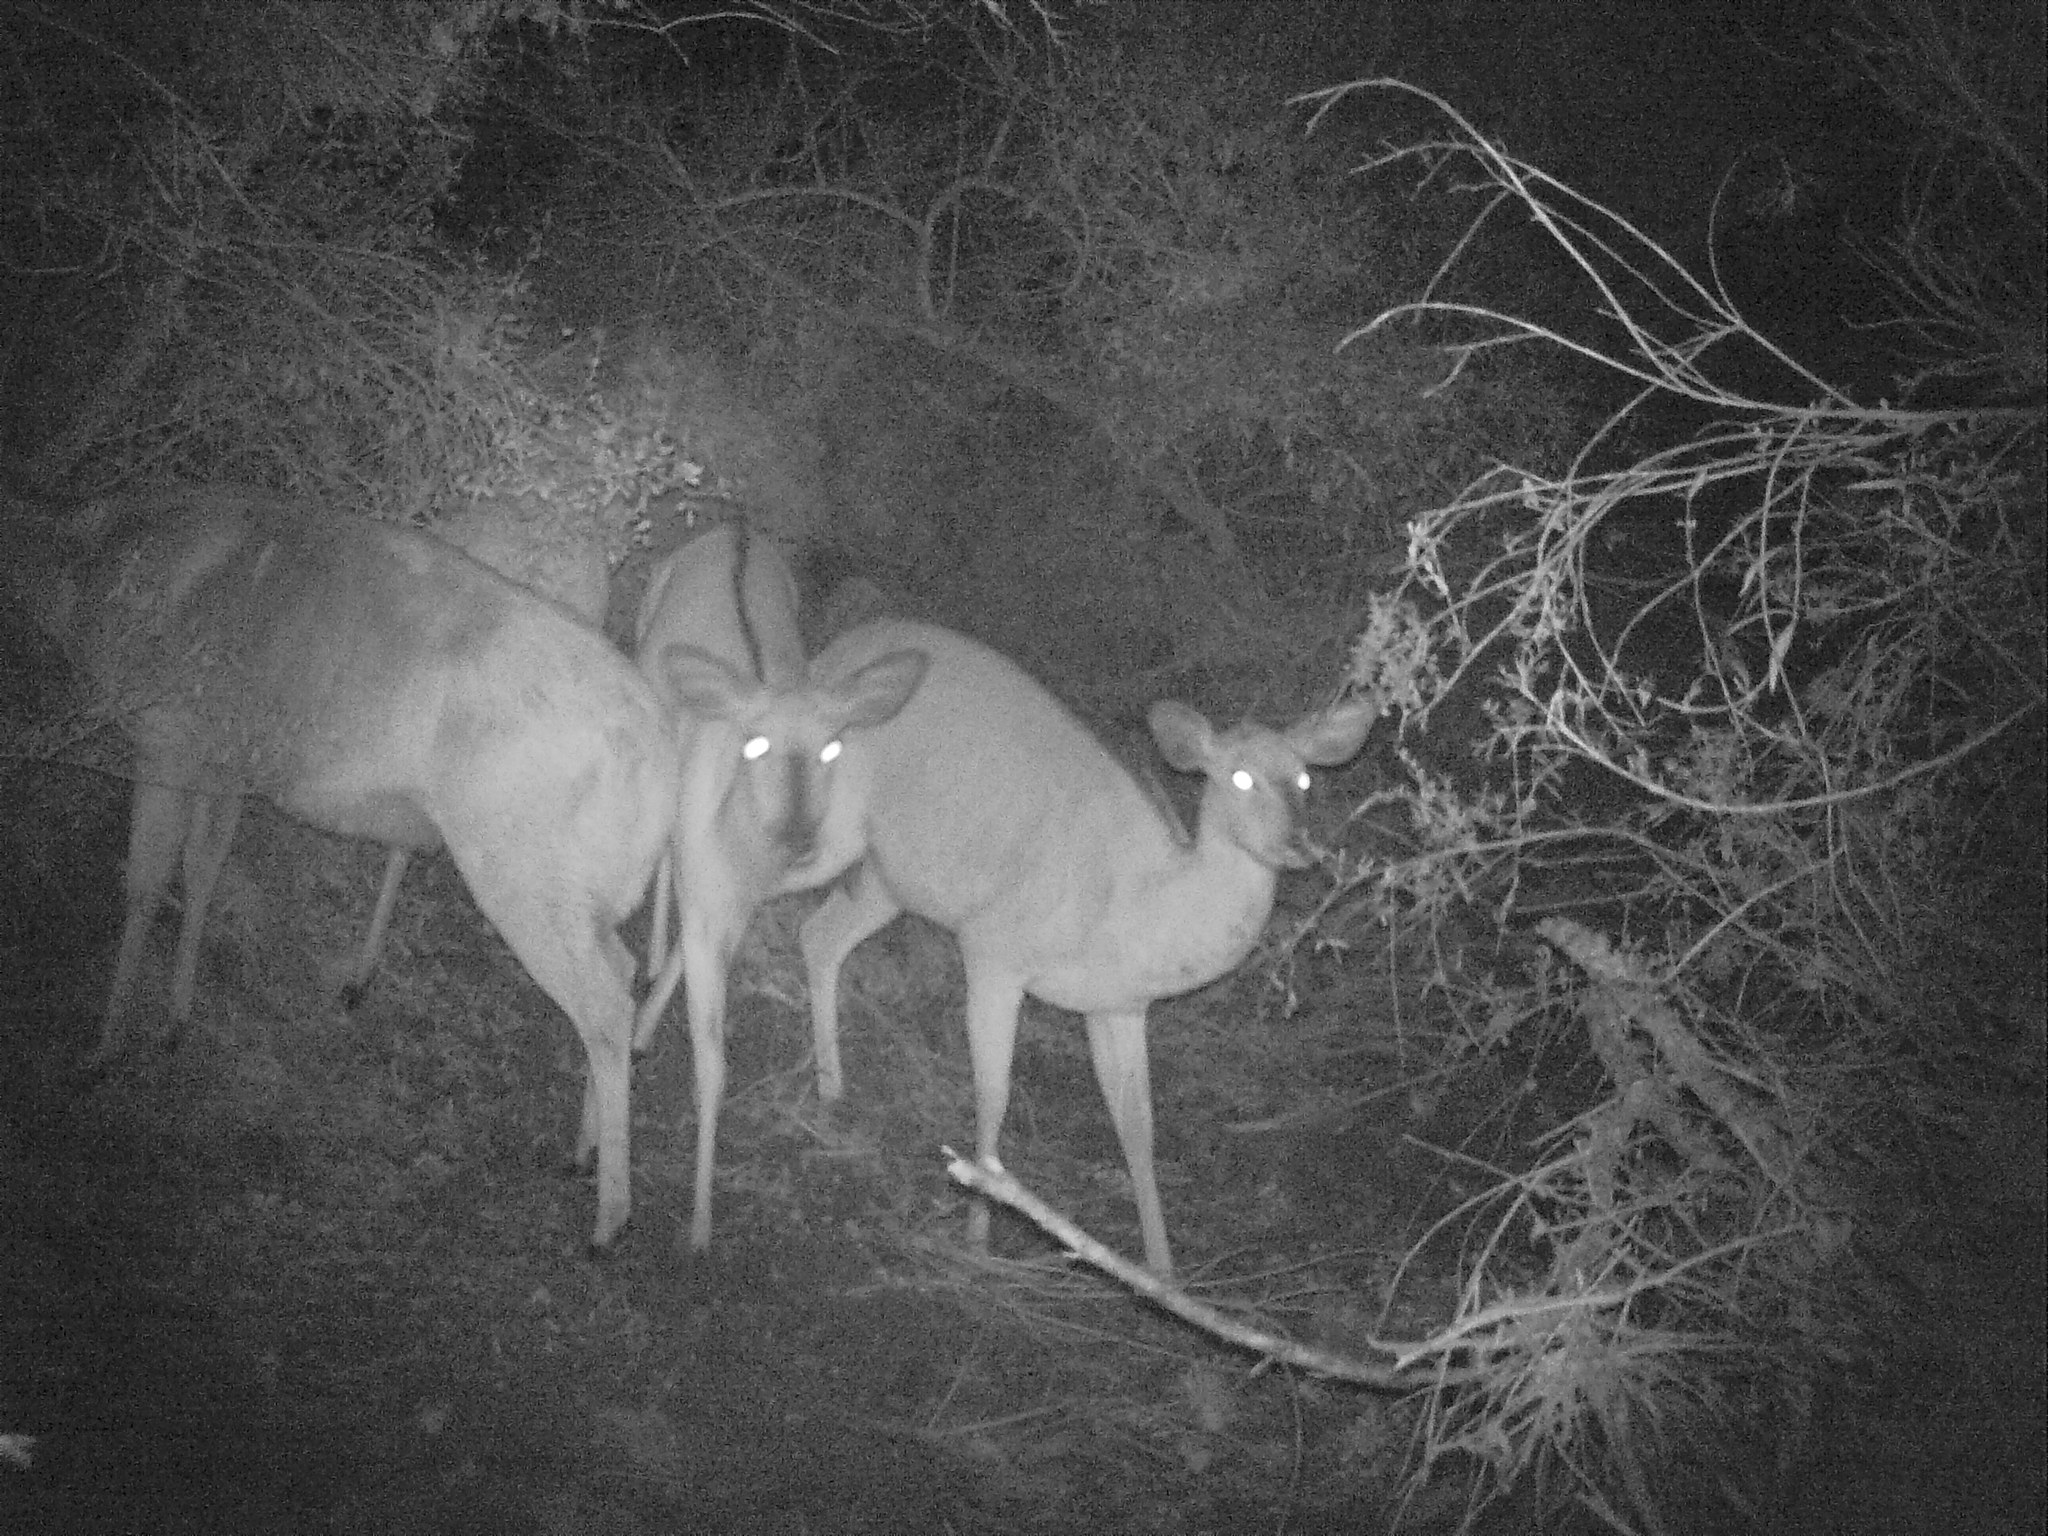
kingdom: Animalia
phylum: Chordata
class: Mammalia
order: Artiodactyla
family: Bovidae
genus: Tragelaphus
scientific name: Tragelaphus angasii
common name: Nyala
